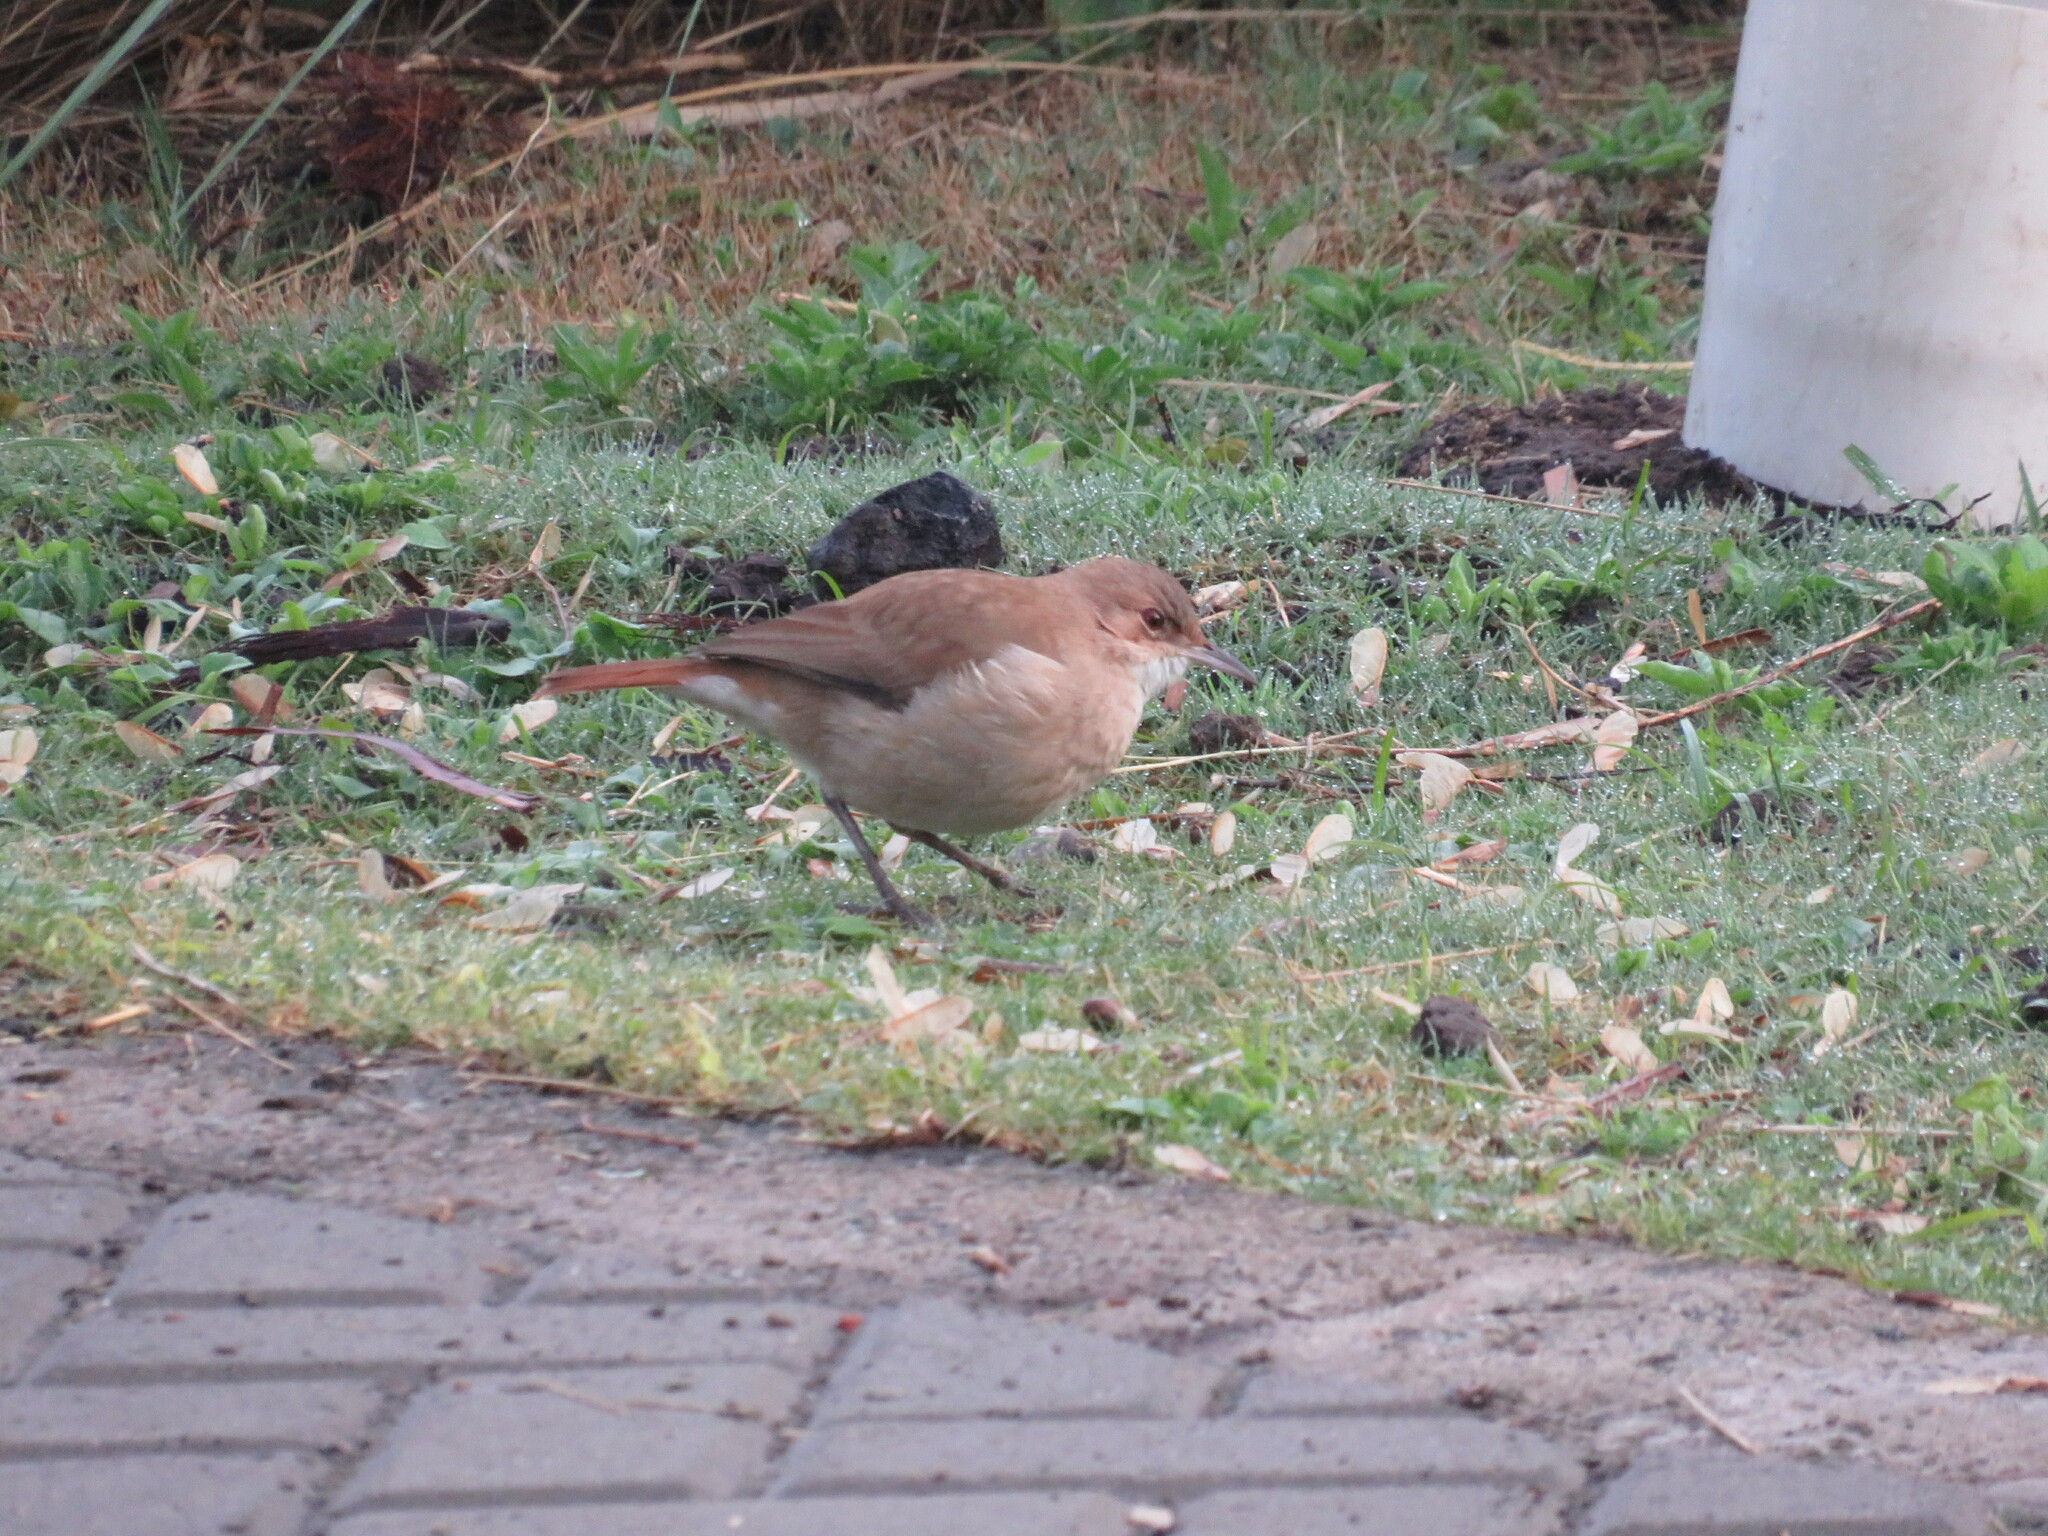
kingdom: Animalia
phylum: Chordata
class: Aves
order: Passeriformes
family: Furnariidae
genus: Furnarius
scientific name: Furnarius rufus
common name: Rufous hornero
